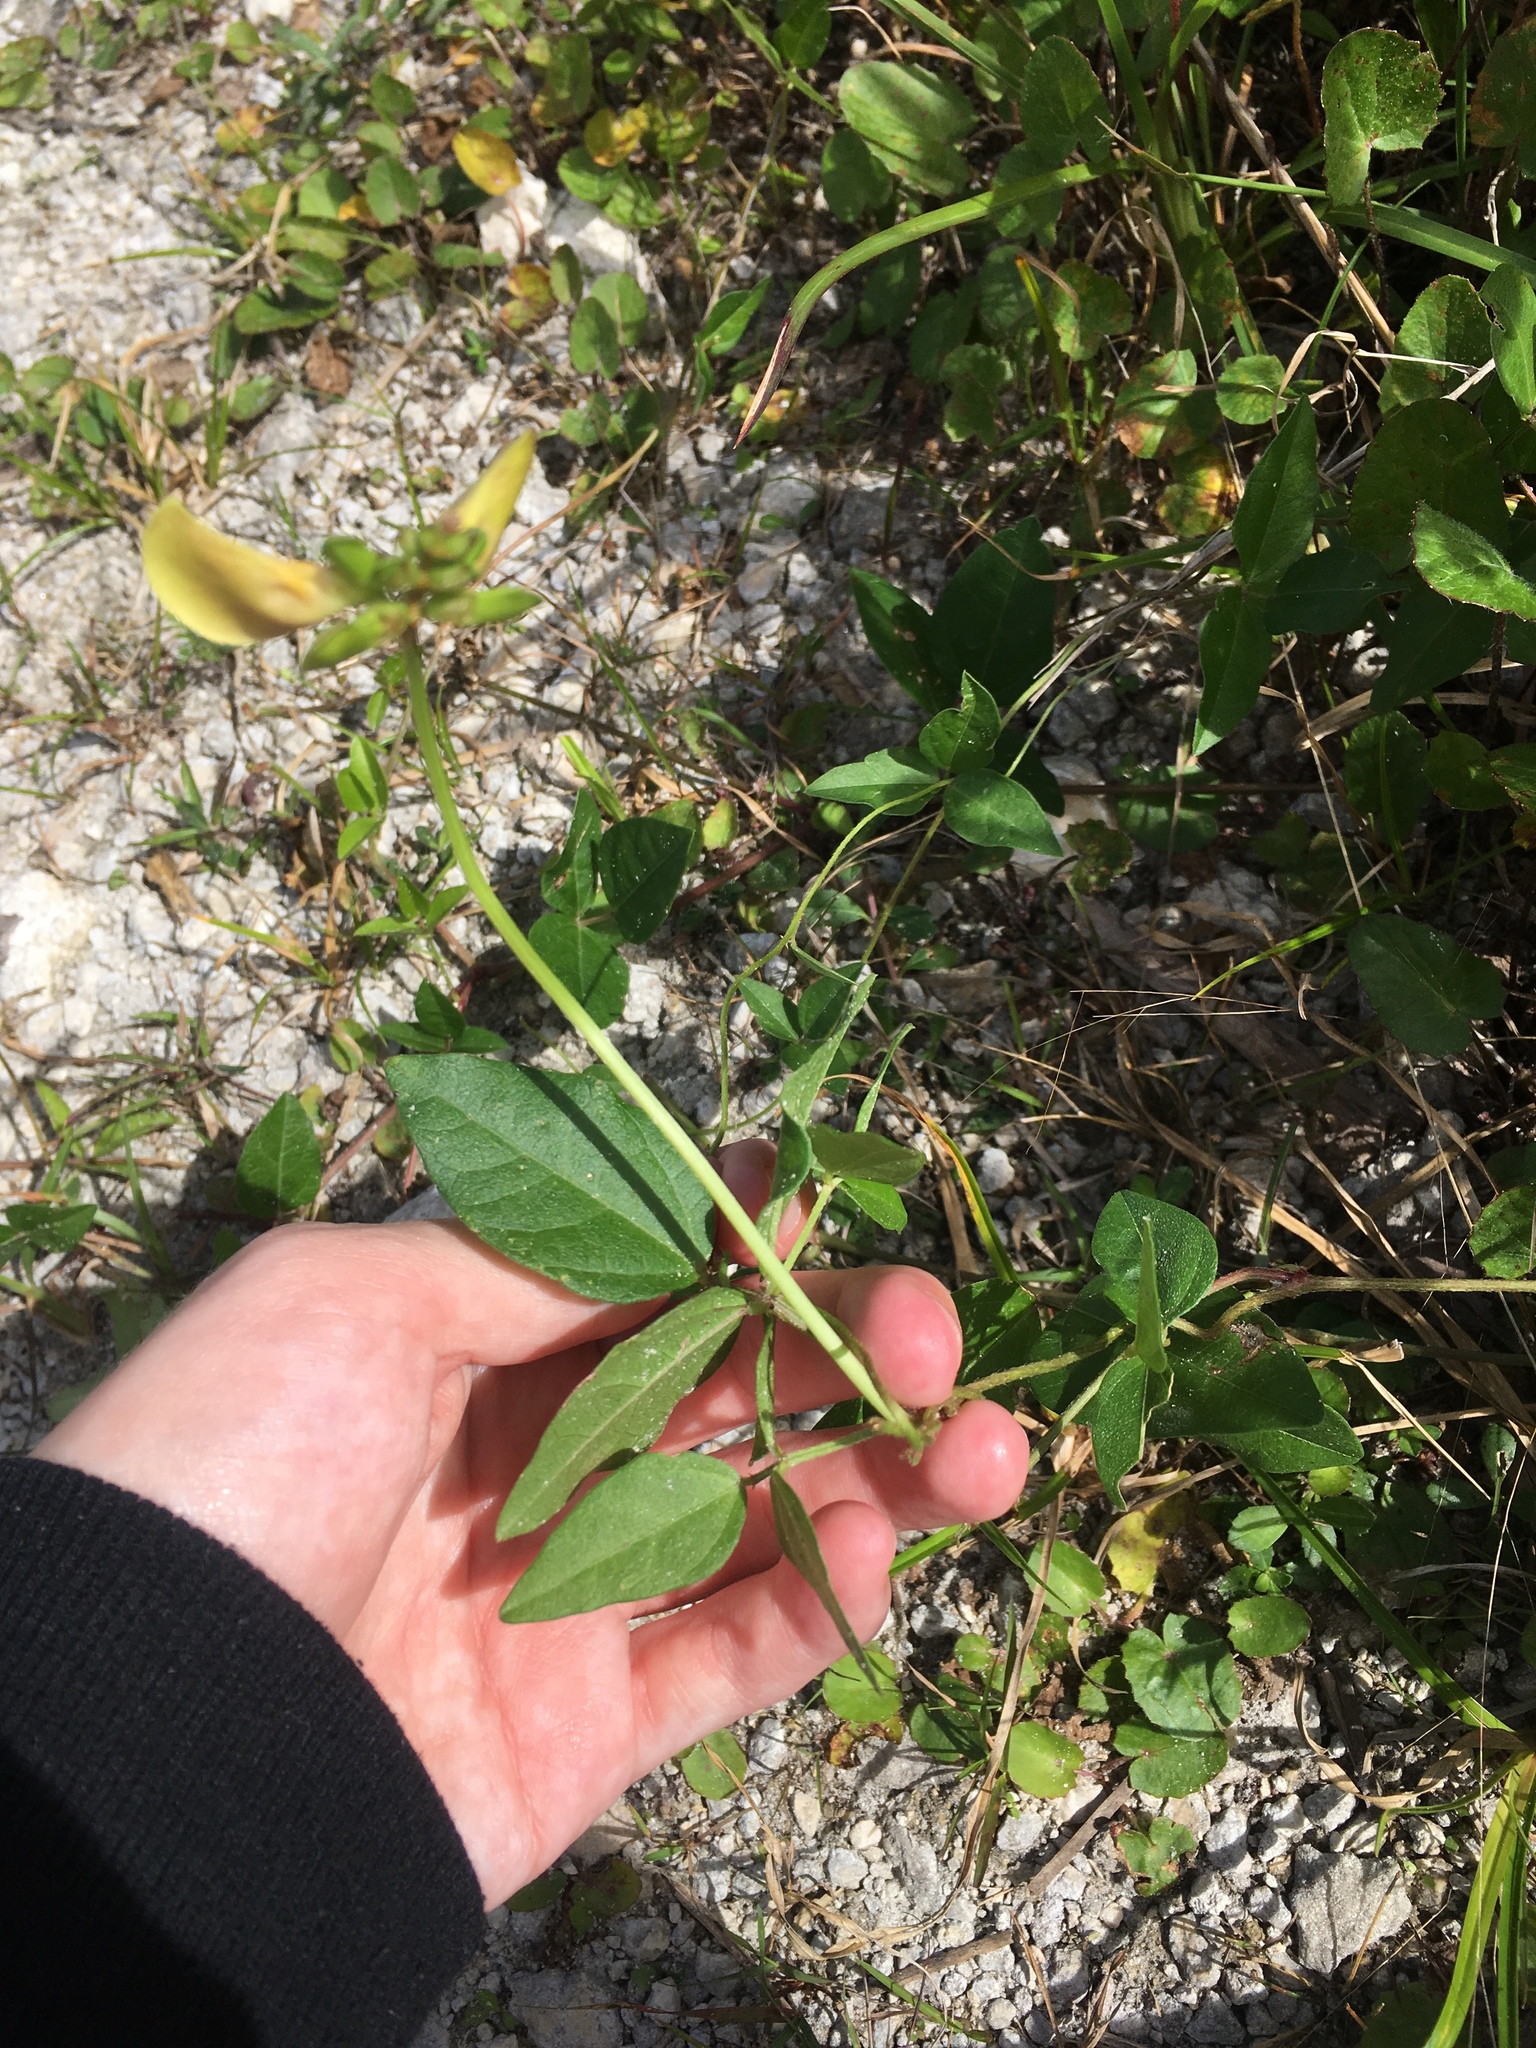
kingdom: Plantae
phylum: Tracheophyta
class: Magnoliopsida
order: Fabales
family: Fabaceae
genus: Vigna
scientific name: Vigna luteola
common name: Hairypod cowpea
